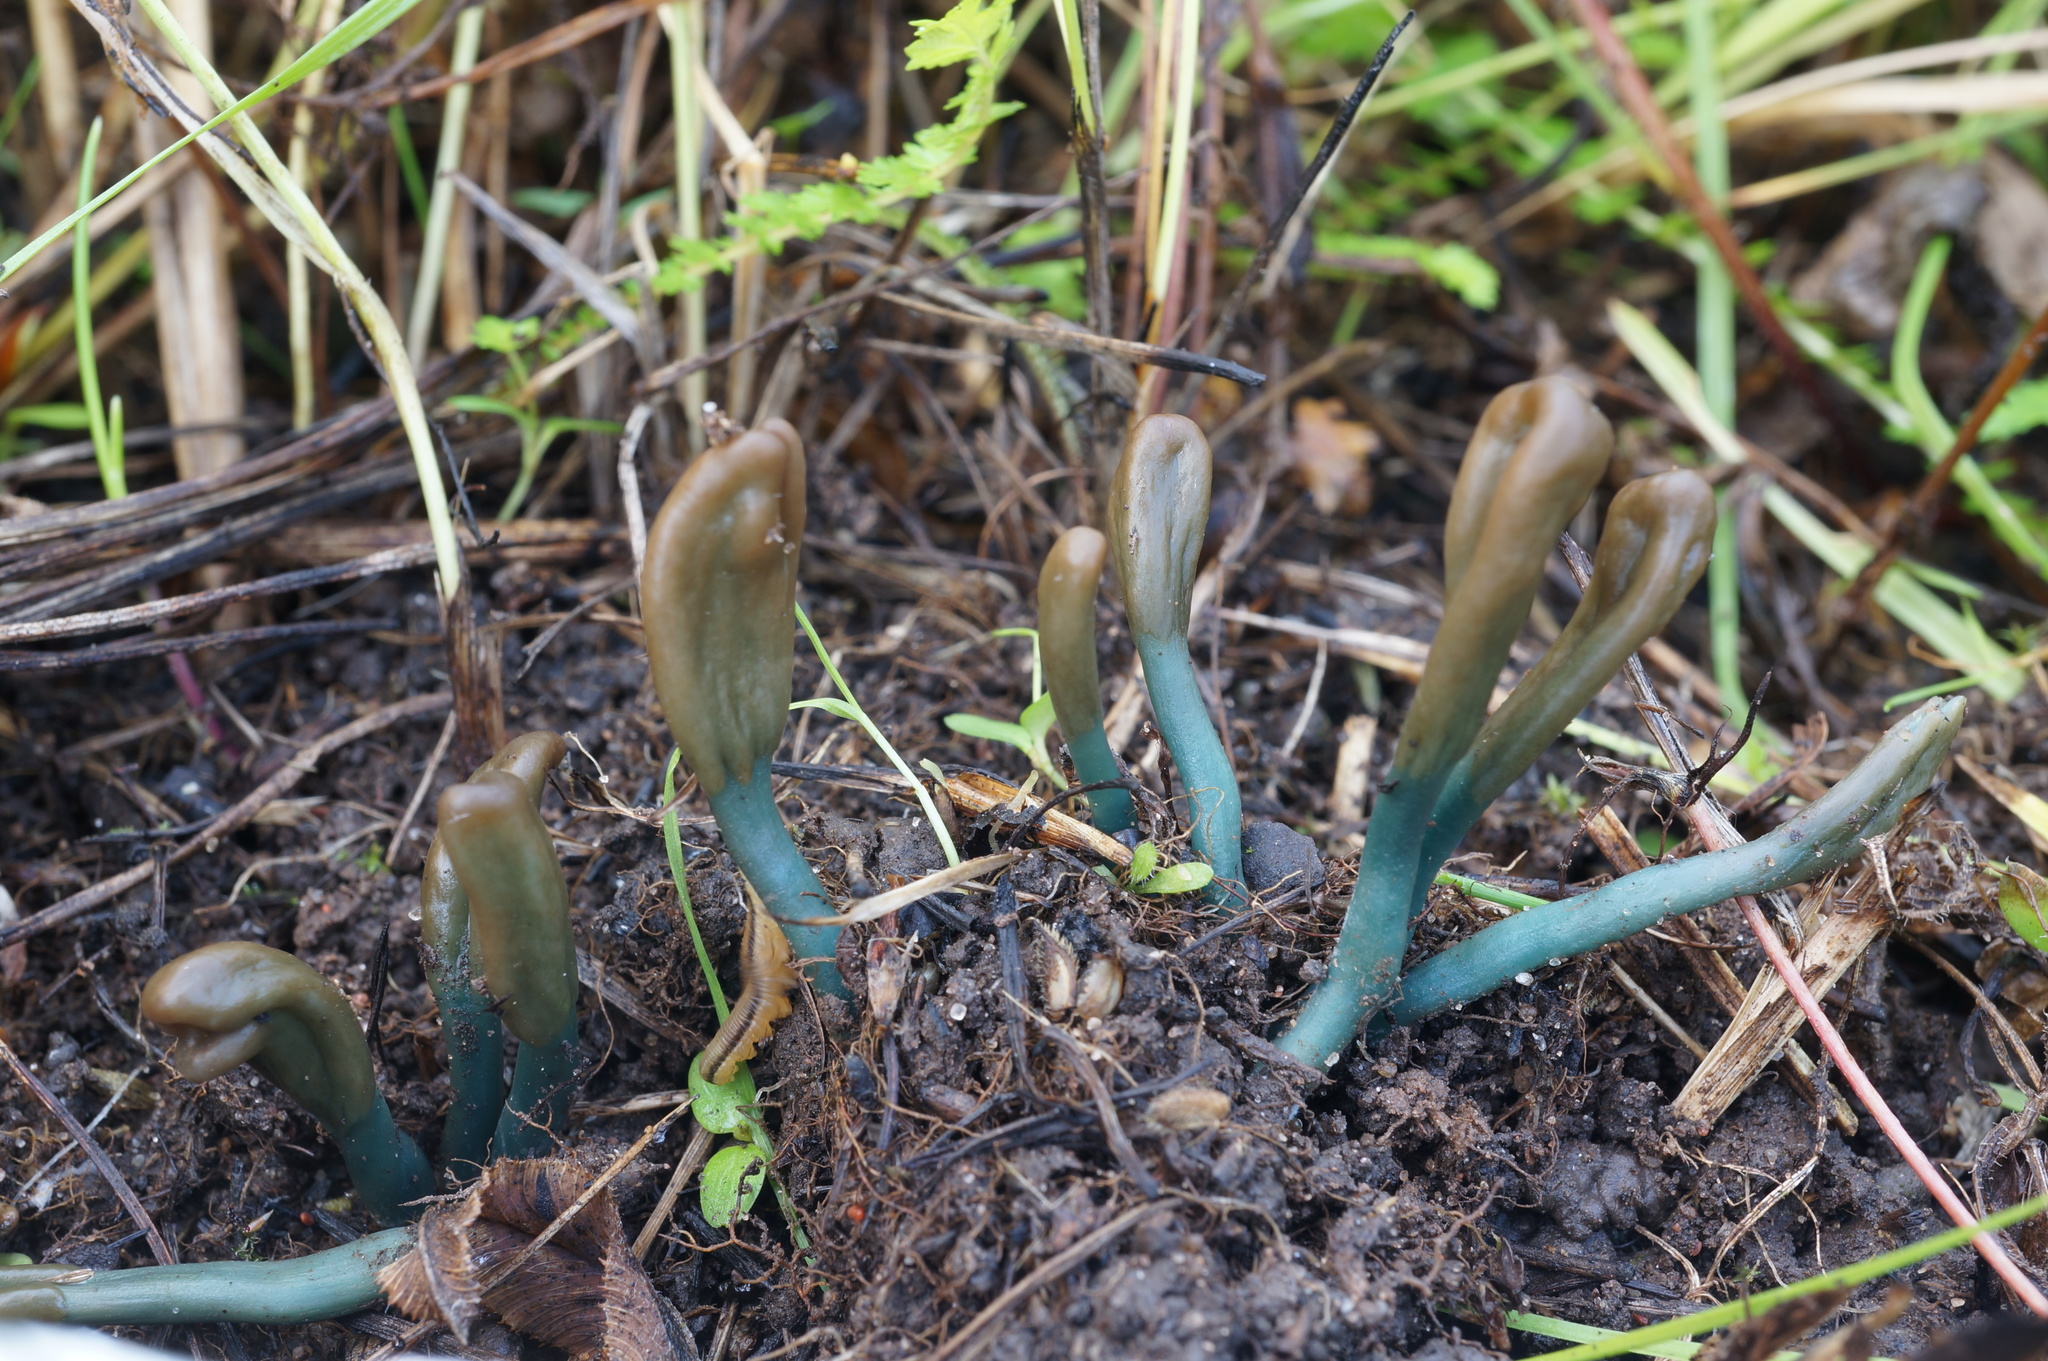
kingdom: Fungi
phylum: Ascomycota
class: Leotiomycetes
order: Leotiales
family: Leotiaceae
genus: Microglossum
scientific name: Microglossum parvisporum
